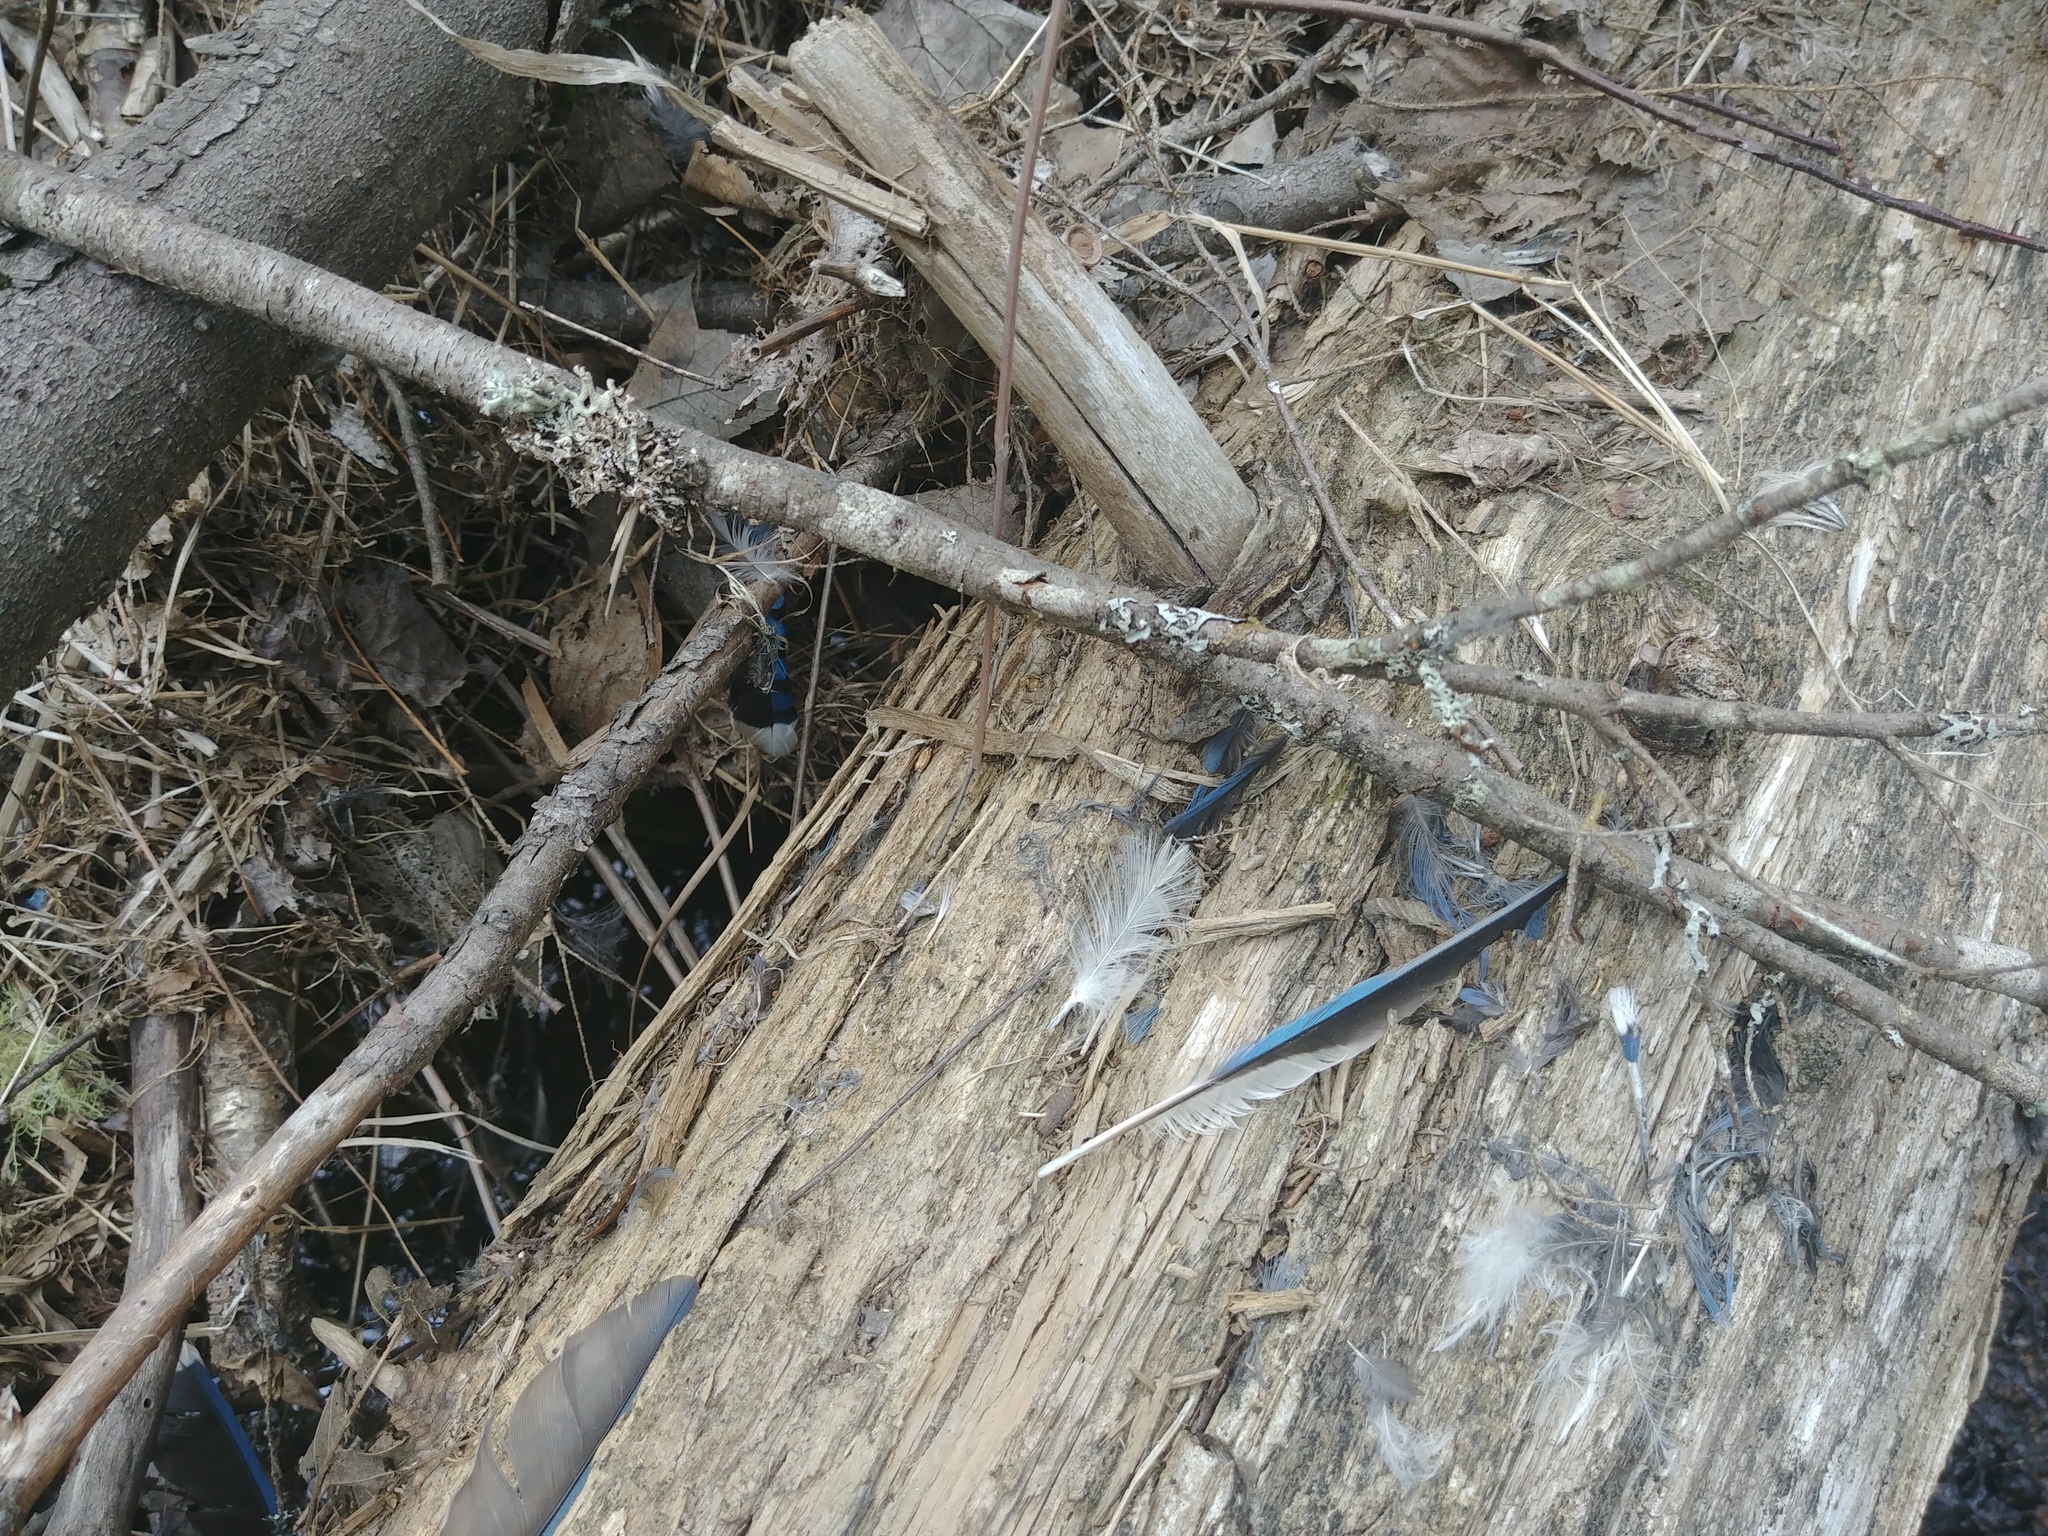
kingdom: Animalia
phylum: Chordata
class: Aves
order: Passeriformes
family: Corvidae
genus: Cyanocitta
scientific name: Cyanocitta cristata
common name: Blue jay
